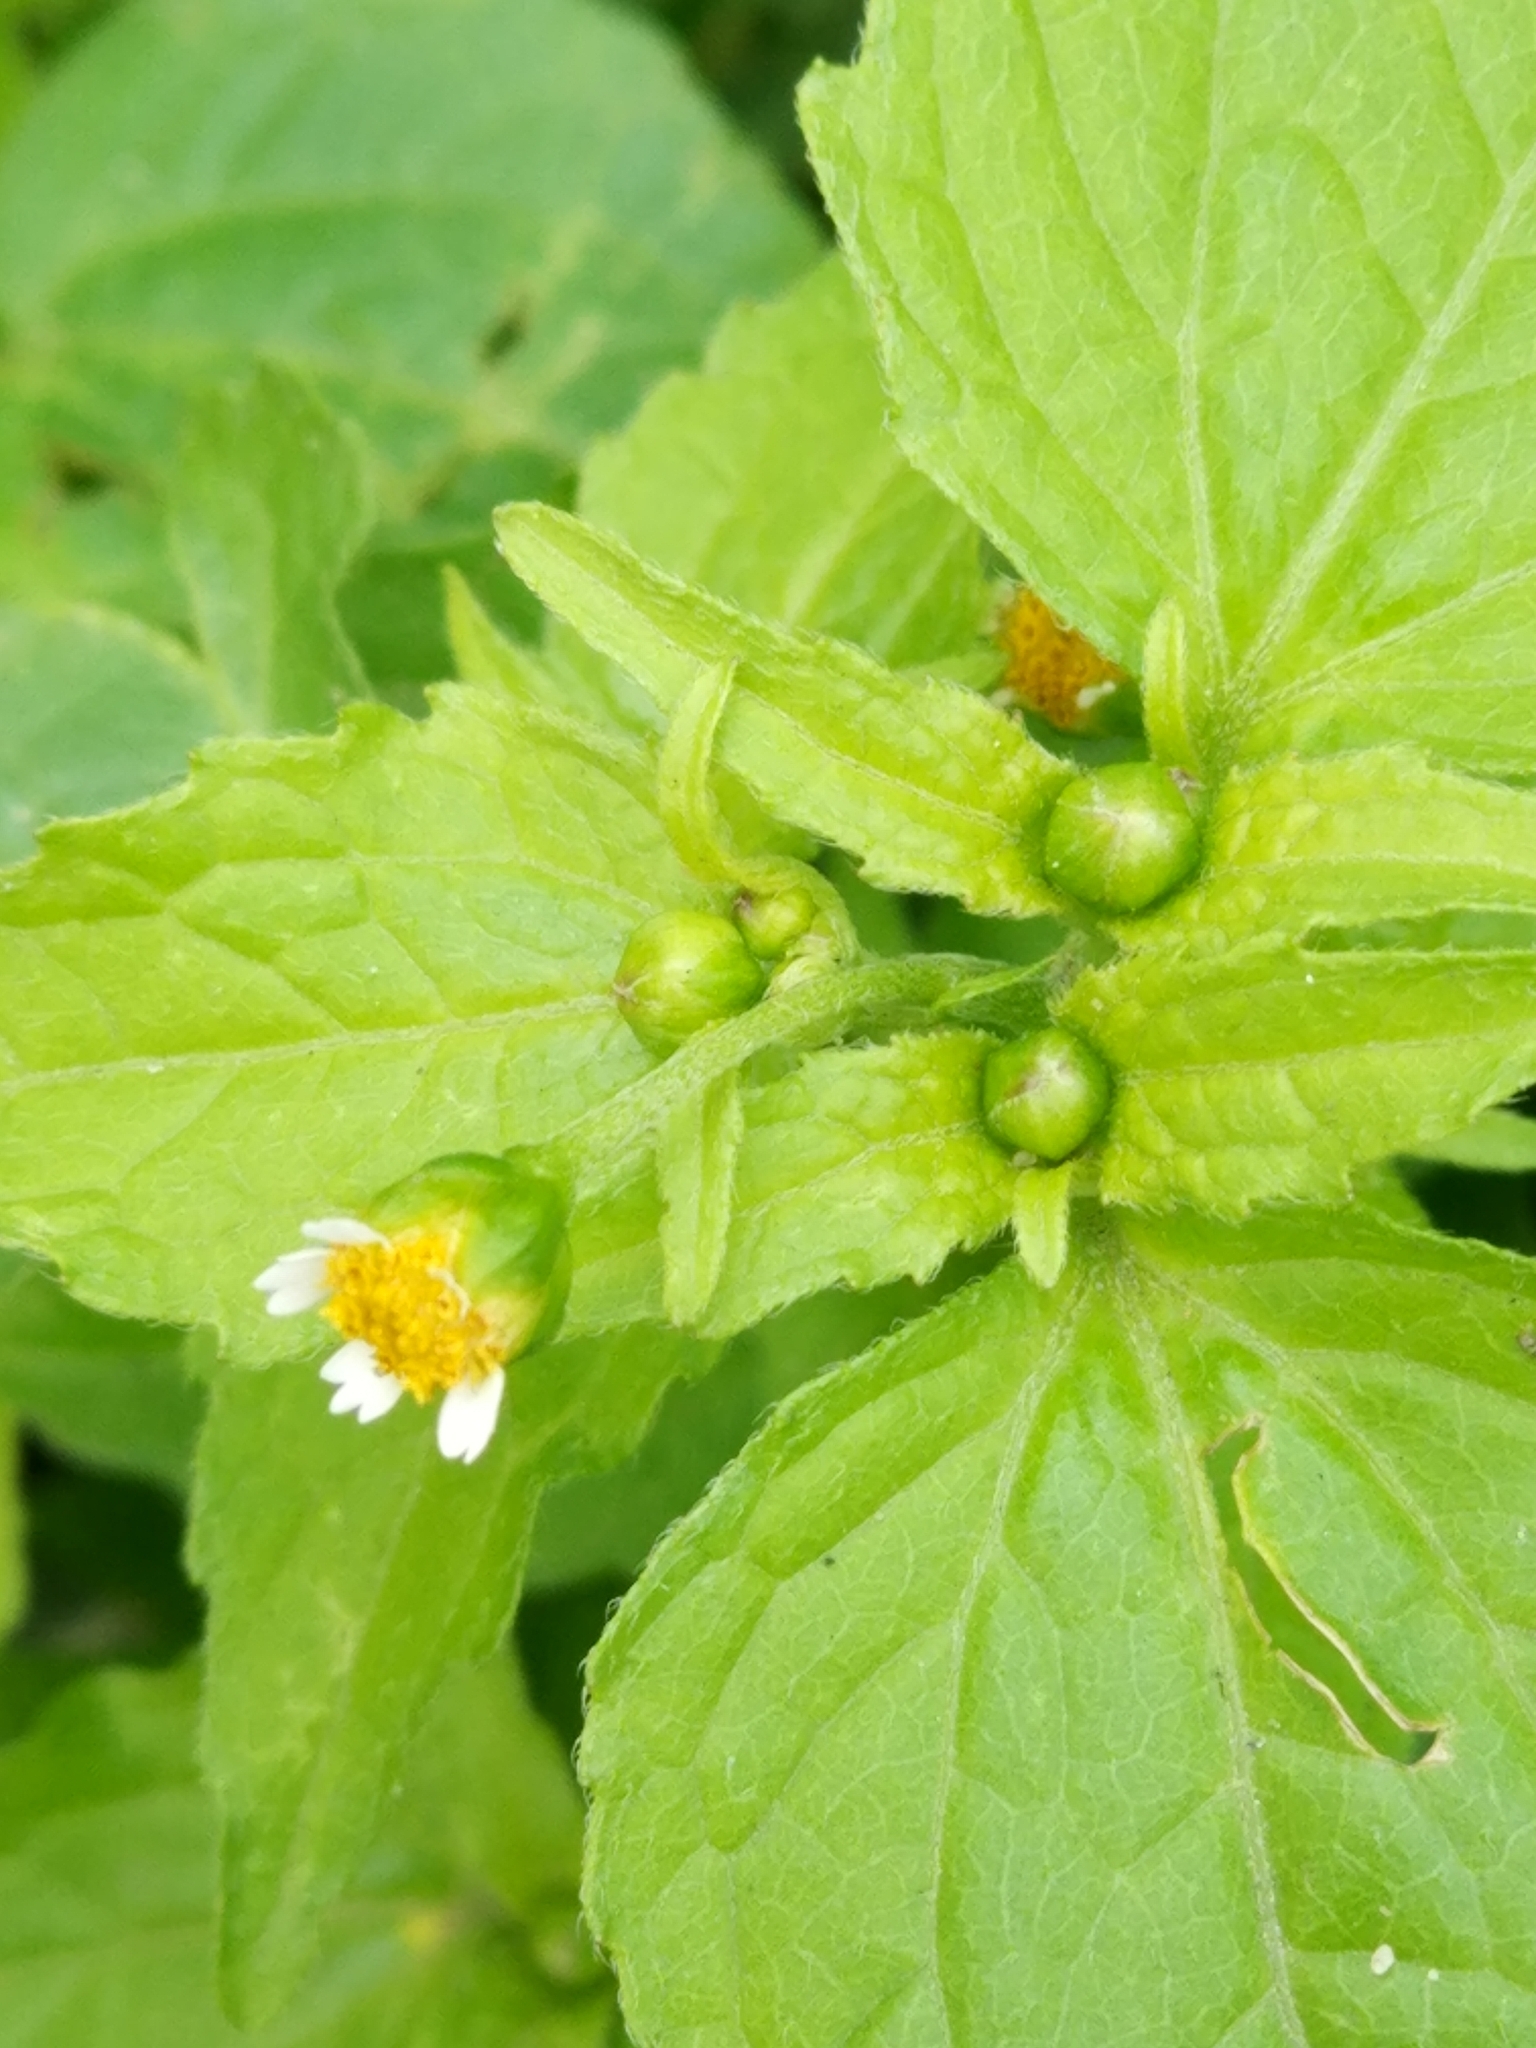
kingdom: Plantae
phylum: Tracheophyta
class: Magnoliopsida
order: Asterales
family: Asteraceae
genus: Galinsoga
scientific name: Galinsoga parviflora
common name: Gallant soldier
